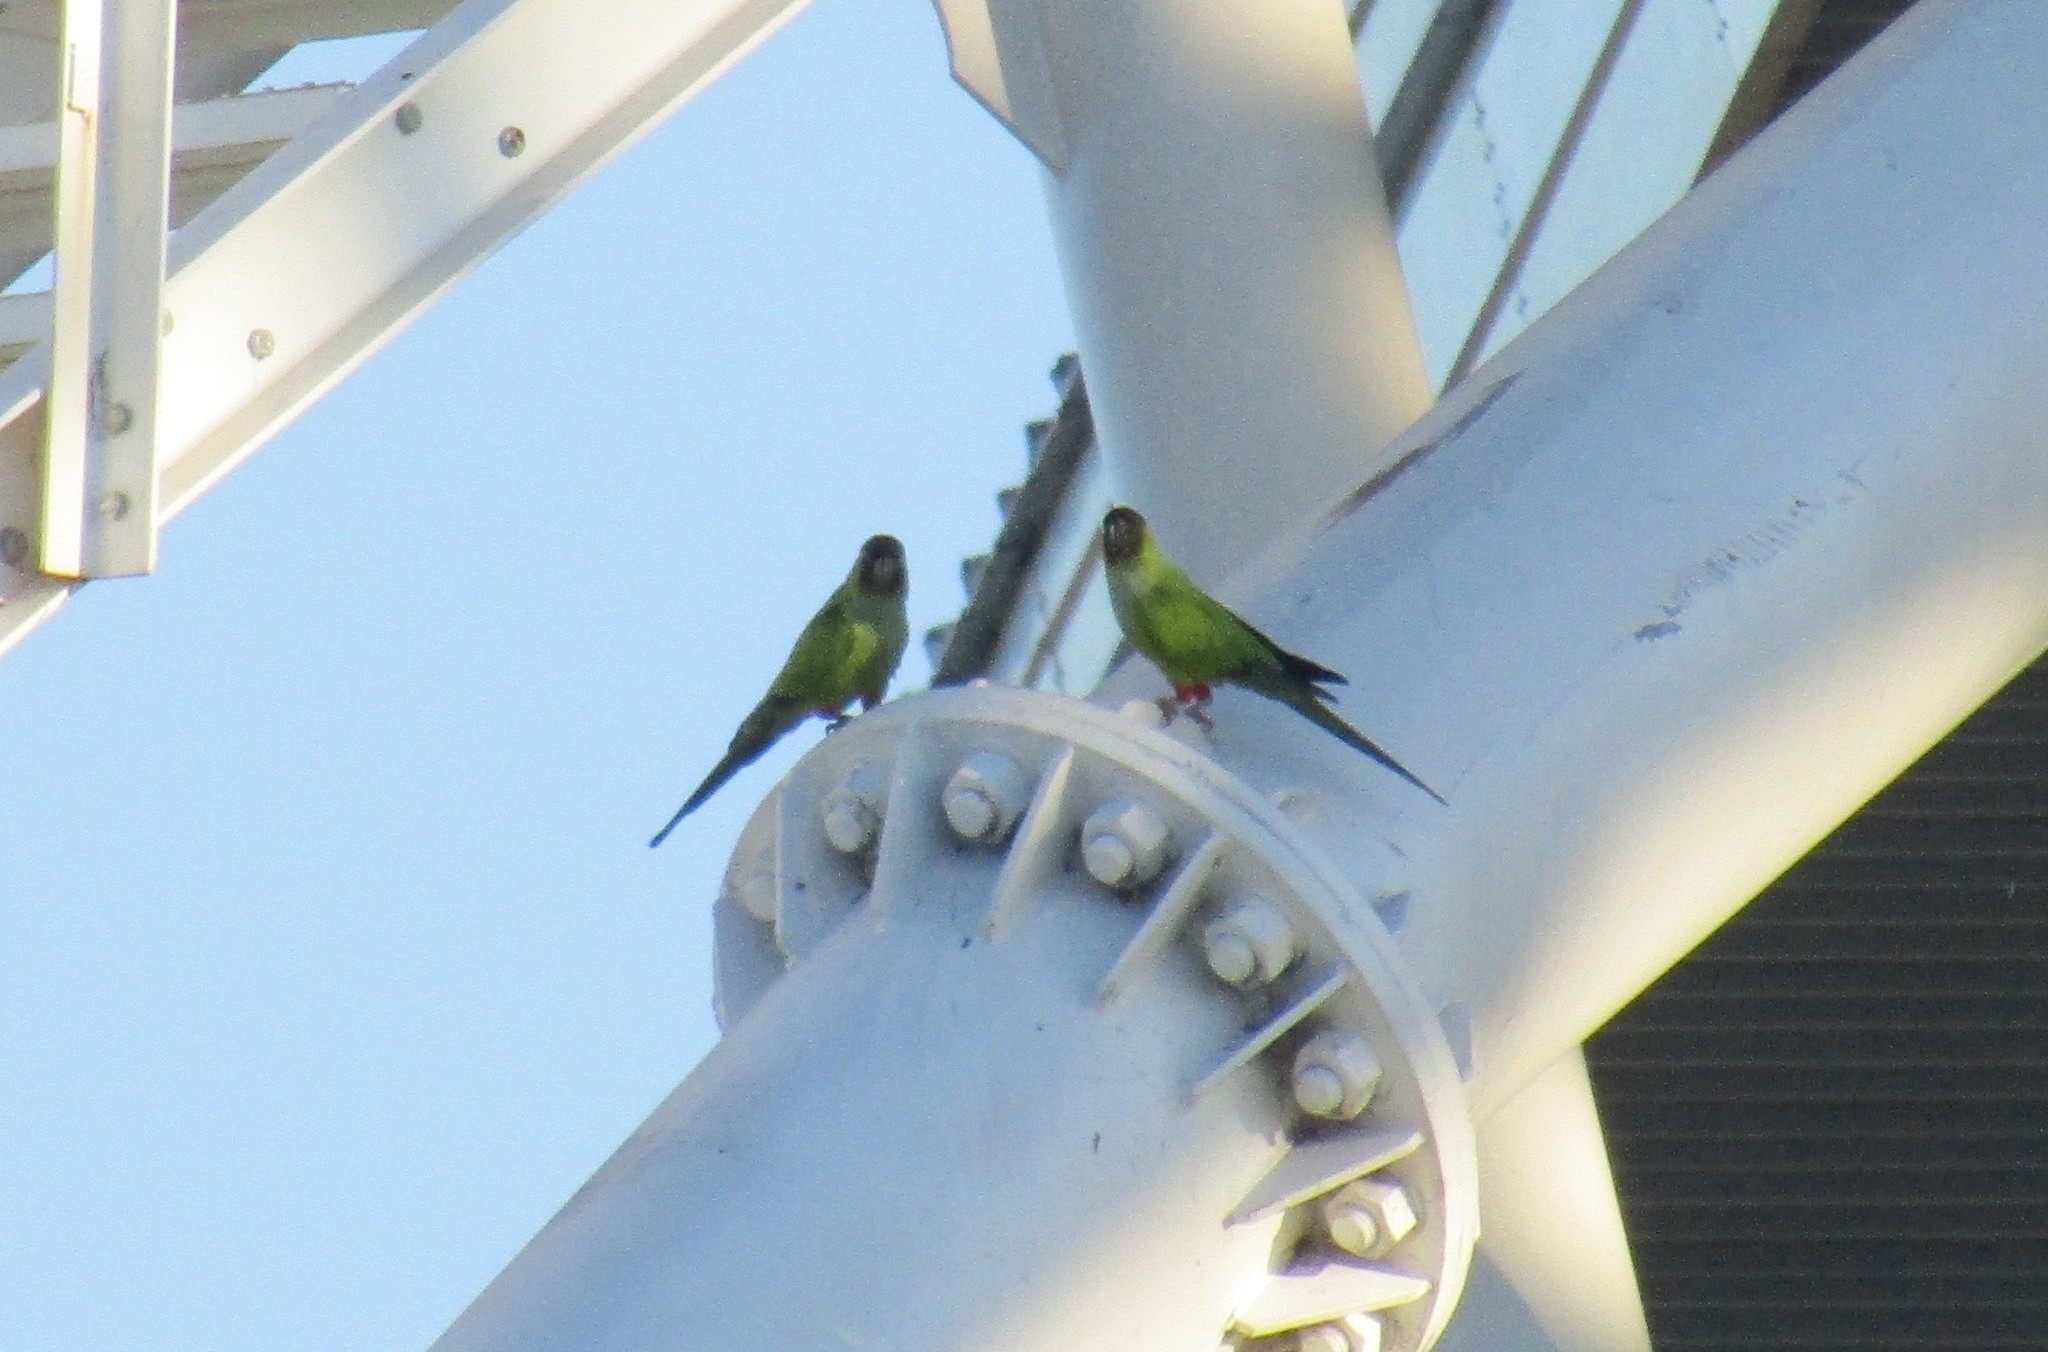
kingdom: Animalia
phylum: Chordata
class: Aves
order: Psittaciformes
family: Psittacidae
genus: Nandayus
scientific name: Nandayus nenday
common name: Nanday parakeet
